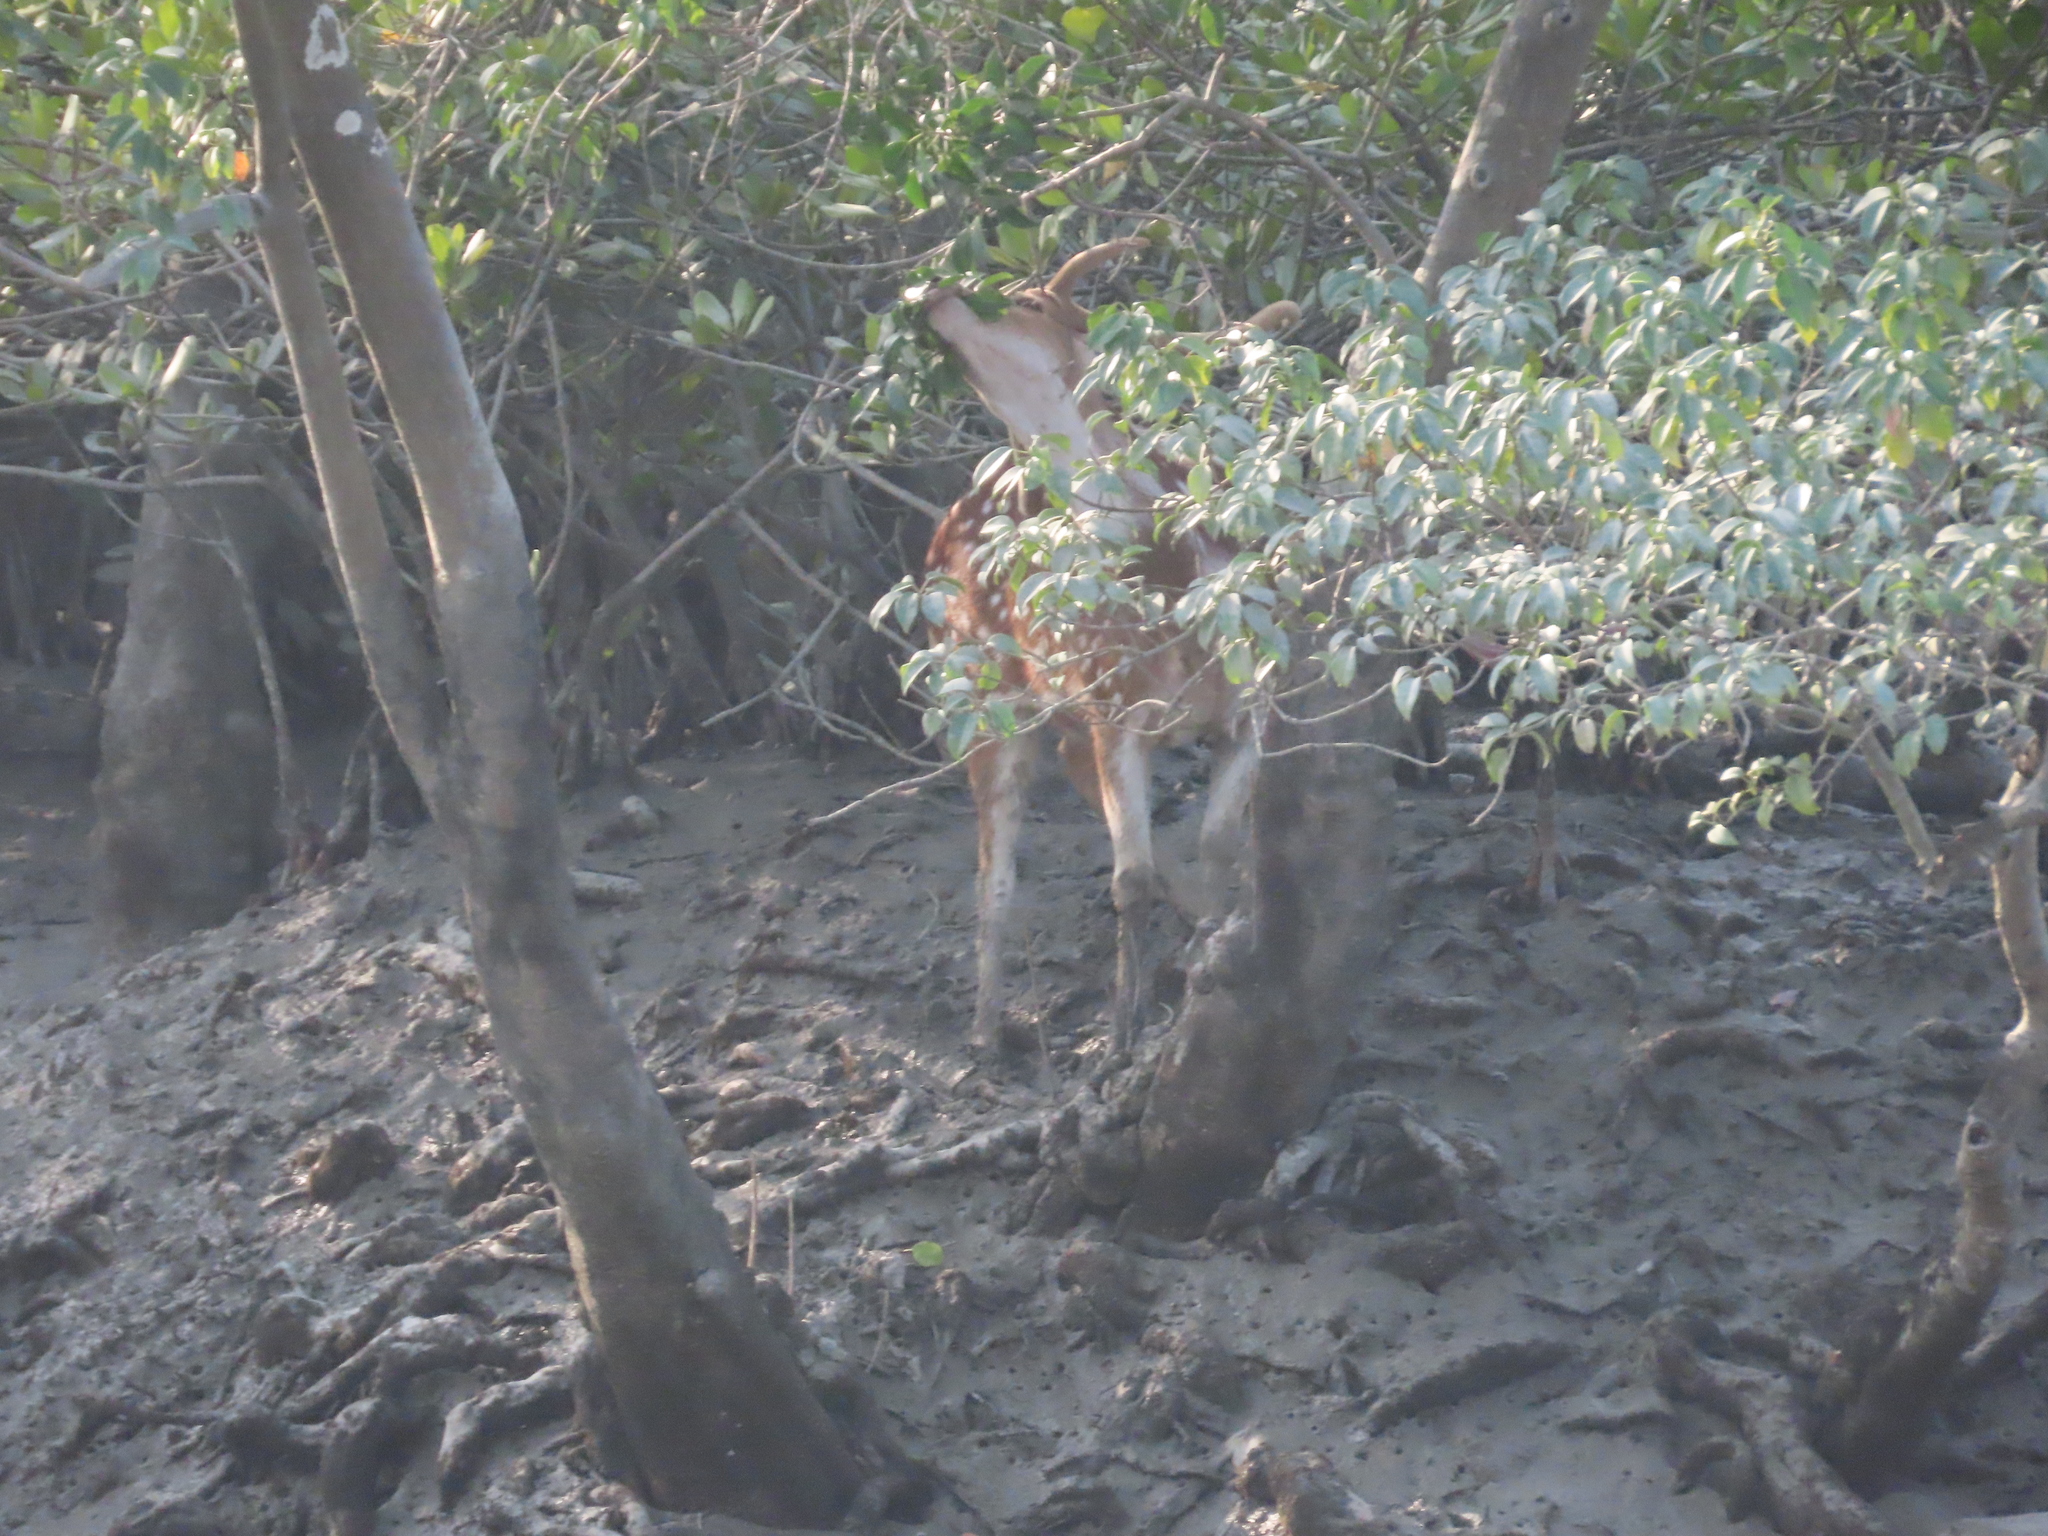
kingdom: Animalia
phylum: Chordata
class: Mammalia
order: Artiodactyla
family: Cervidae
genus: Axis
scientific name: Axis axis
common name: Chital
